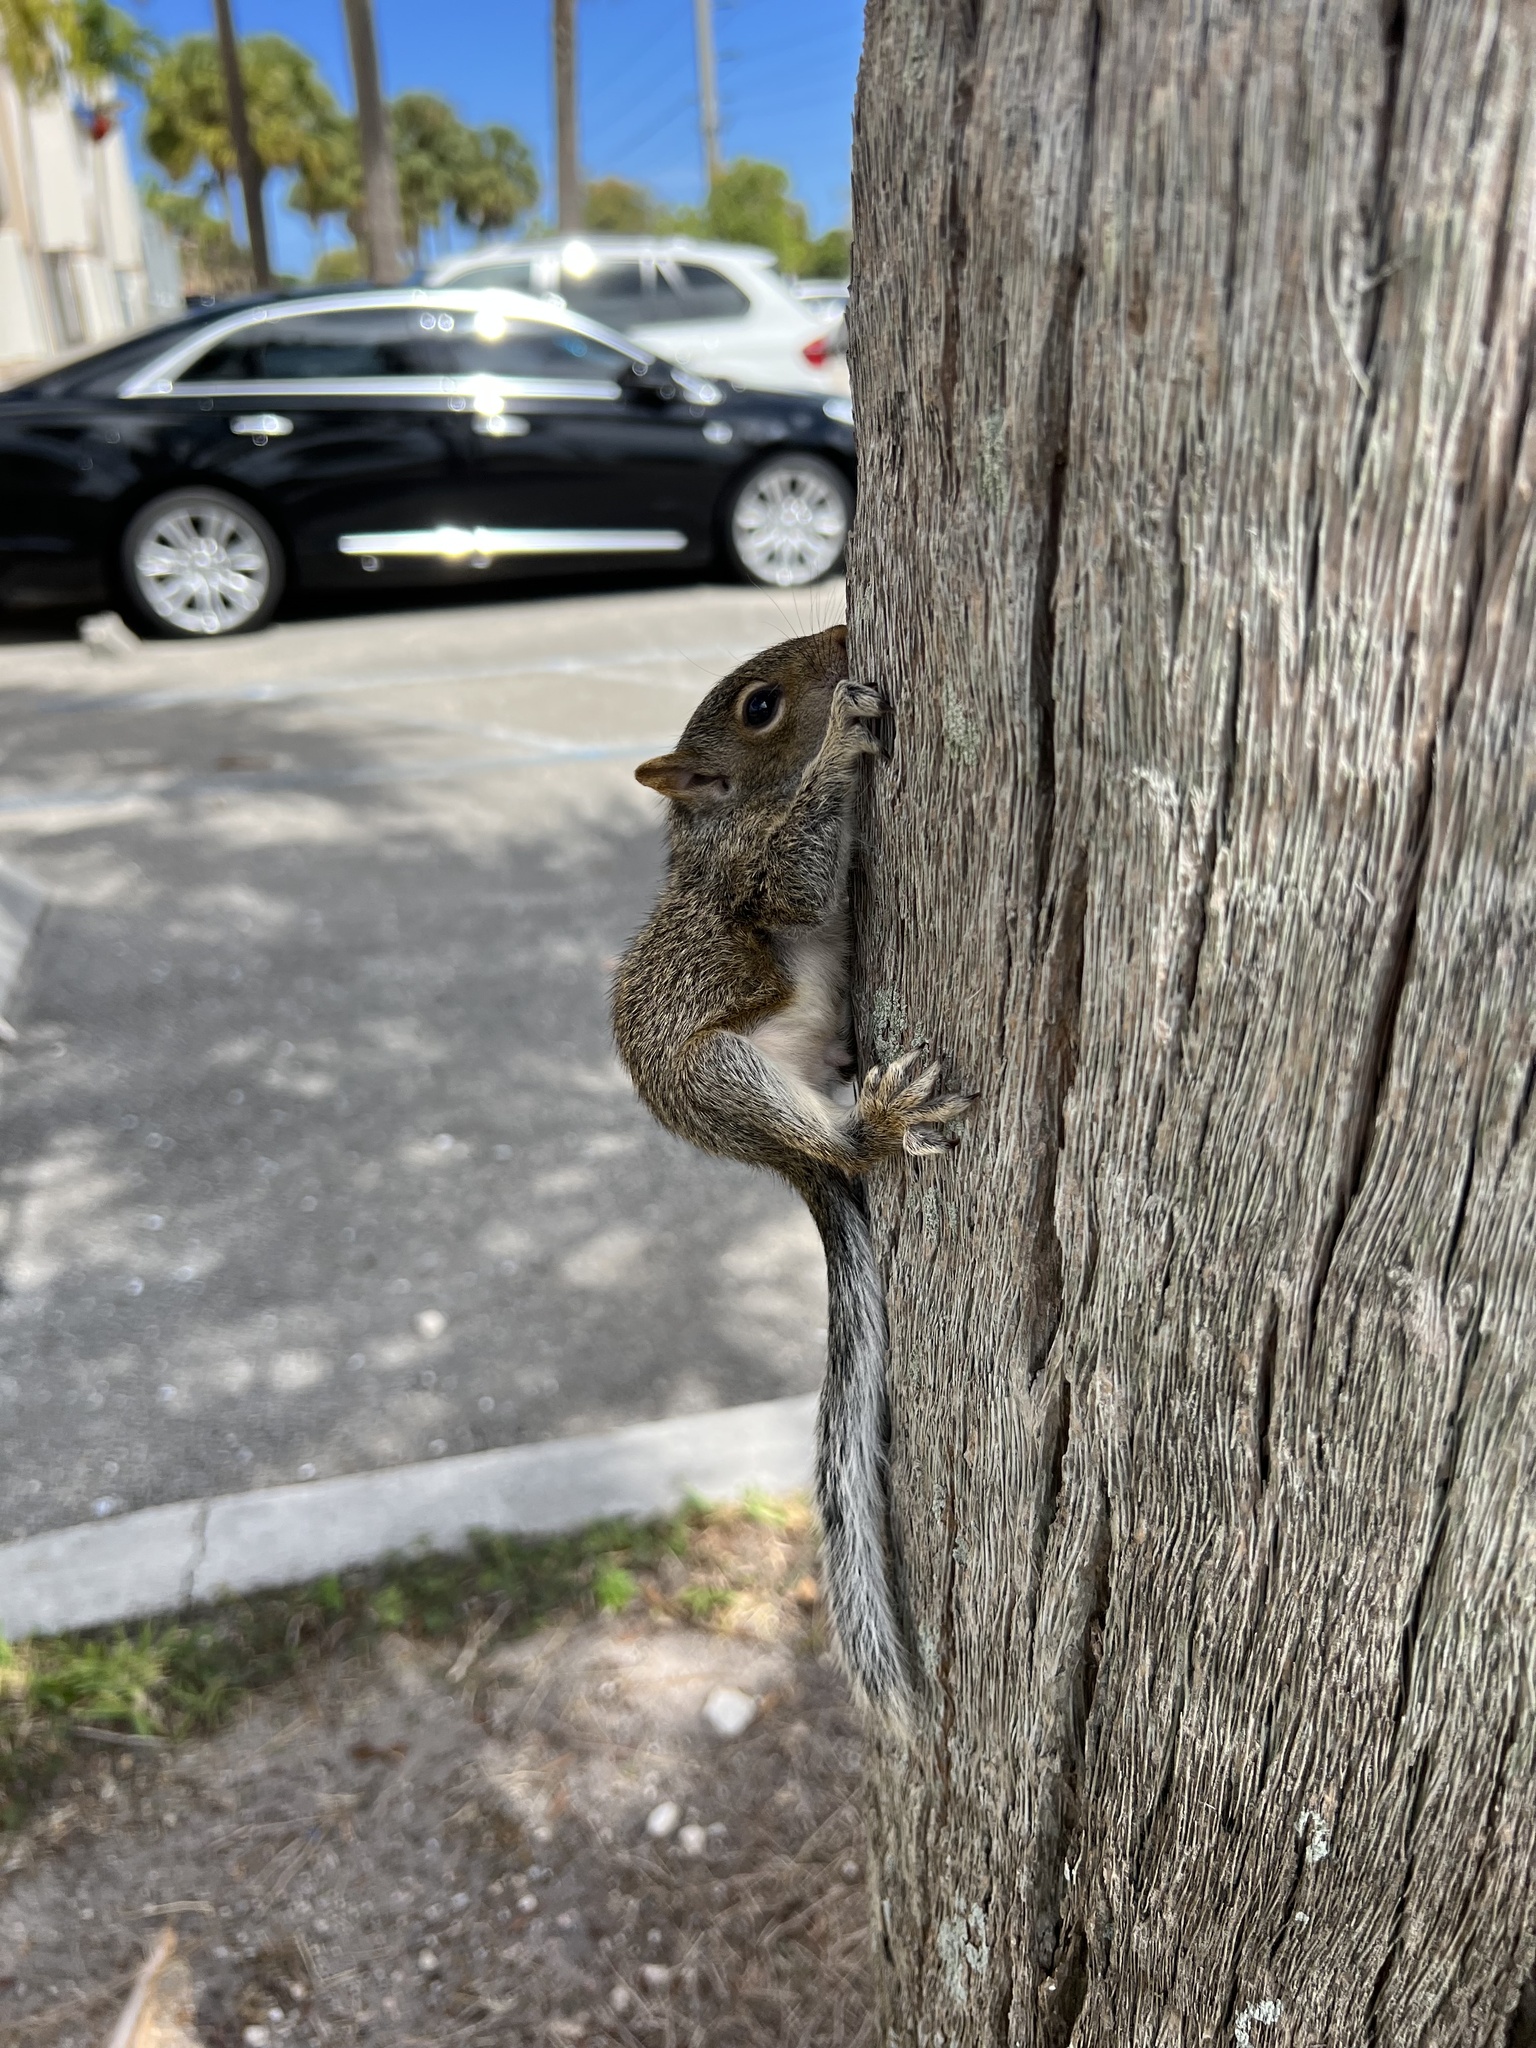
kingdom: Animalia
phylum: Chordata
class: Mammalia
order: Rodentia
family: Sciuridae
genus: Sciurus
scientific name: Sciurus carolinensis
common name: Eastern gray squirrel
